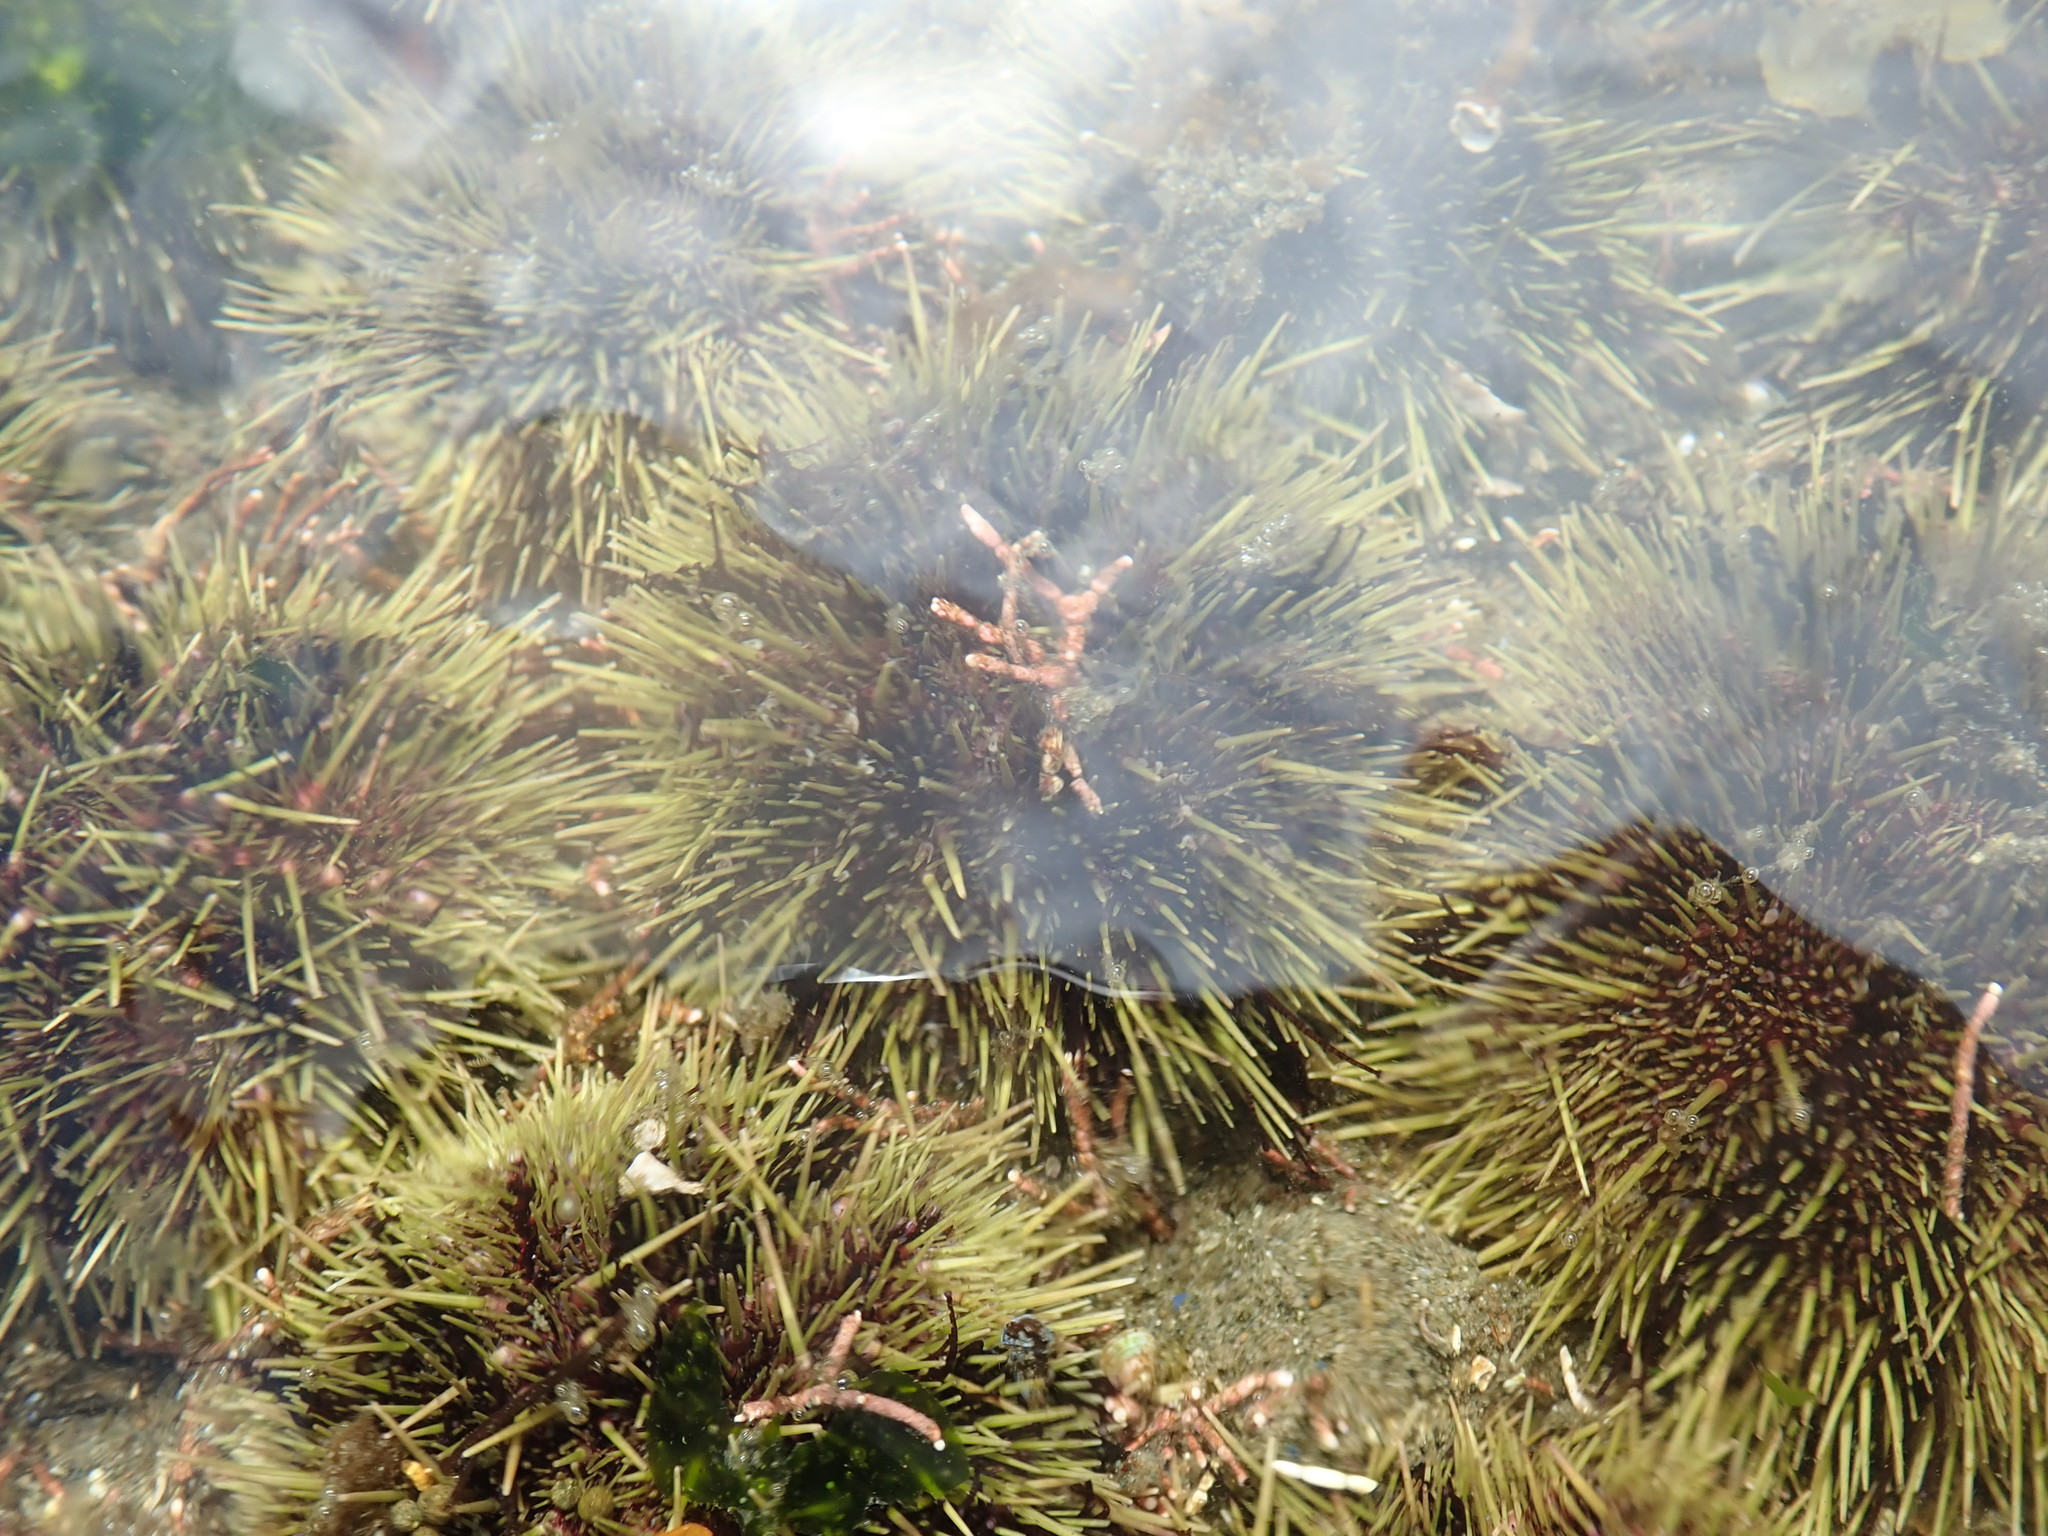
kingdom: Animalia
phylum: Echinodermata
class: Echinoidea
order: Camarodonta
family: Strongylocentrotidae
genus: Strongylocentrotus
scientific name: Strongylocentrotus droebachiensis
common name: Northern sea urchin
